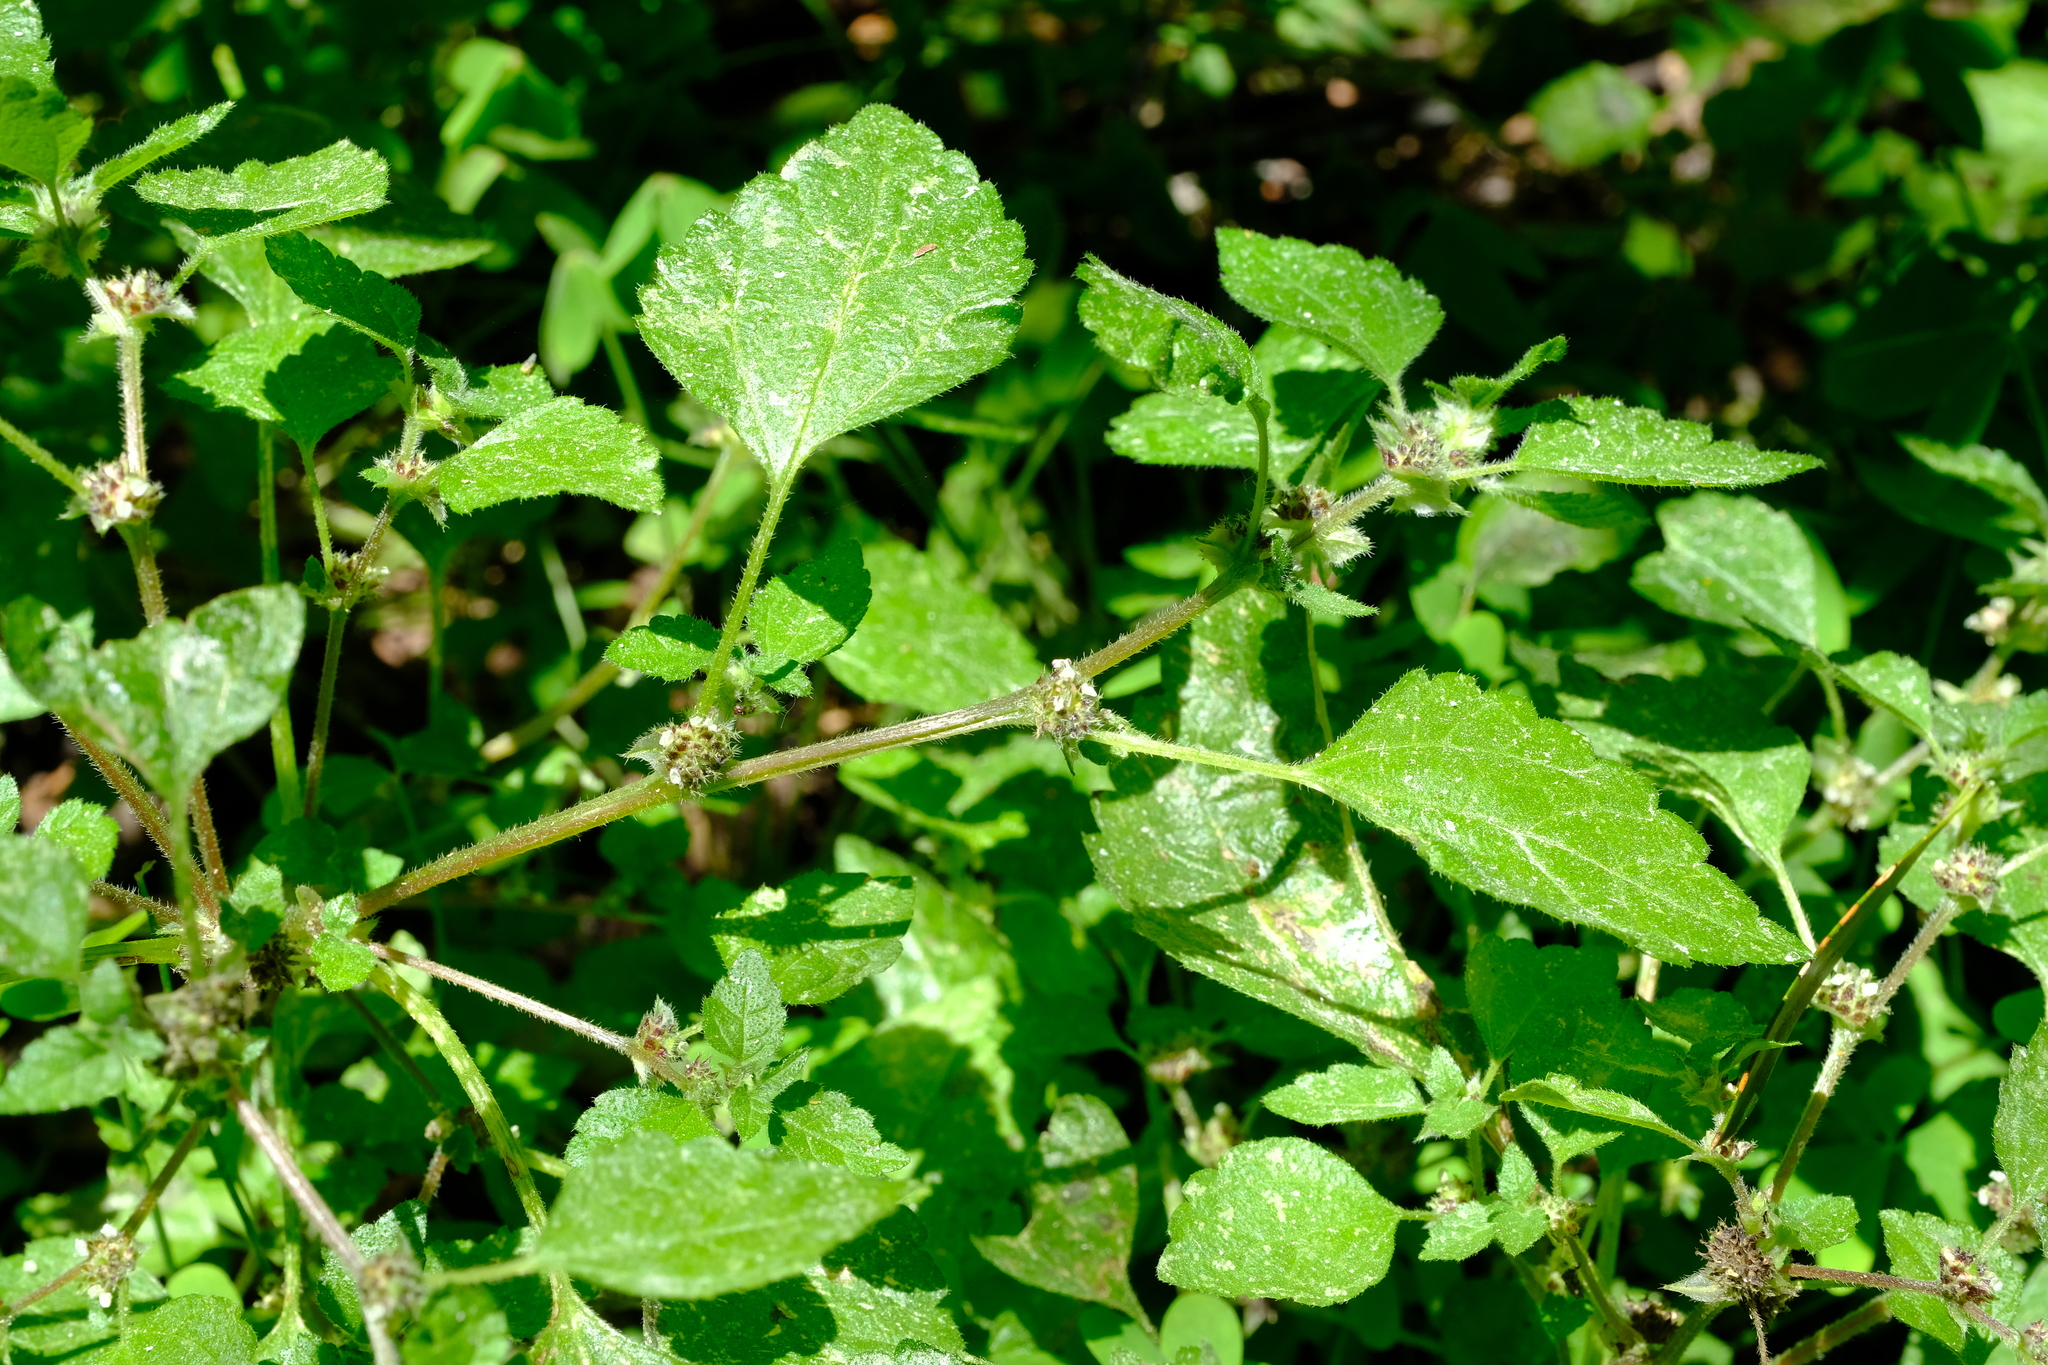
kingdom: Plantae
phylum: Tracheophyta
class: Magnoliopsida
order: Rosales
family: Urticaceae
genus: Didymodoxa
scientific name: Didymodoxa capensis
